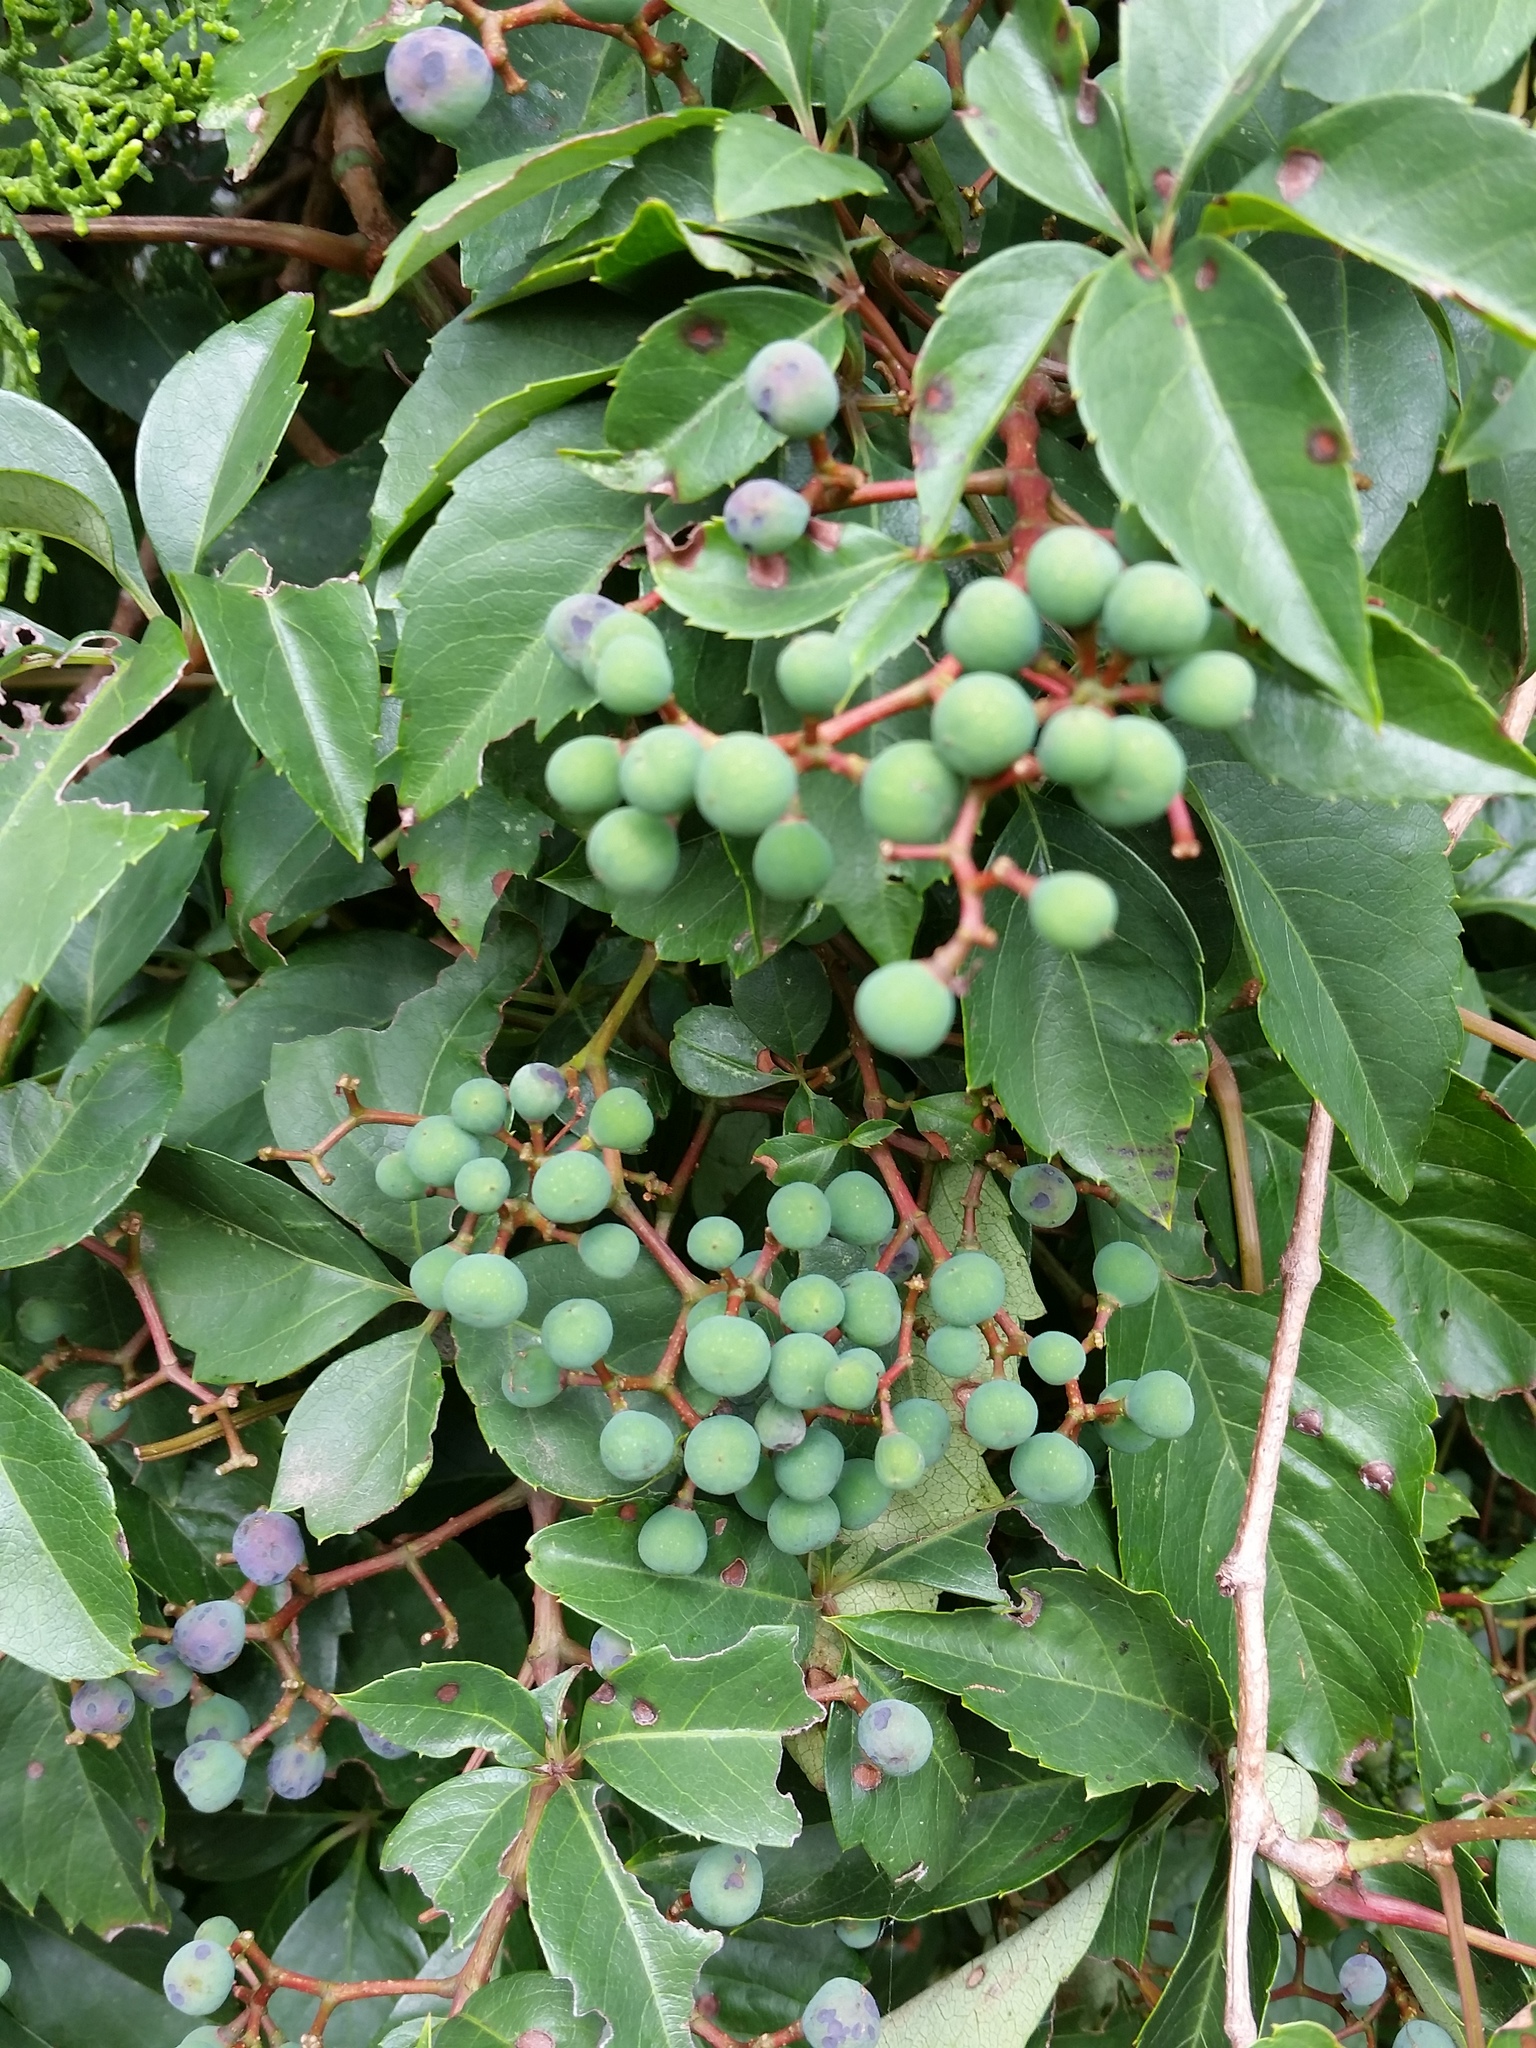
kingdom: Plantae
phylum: Tracheophyta
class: Magnoliopsida
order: Vitales
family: Vitaceae
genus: Parthenocissus
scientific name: Parthenocissus quinquefolia
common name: Virginia-creeper
